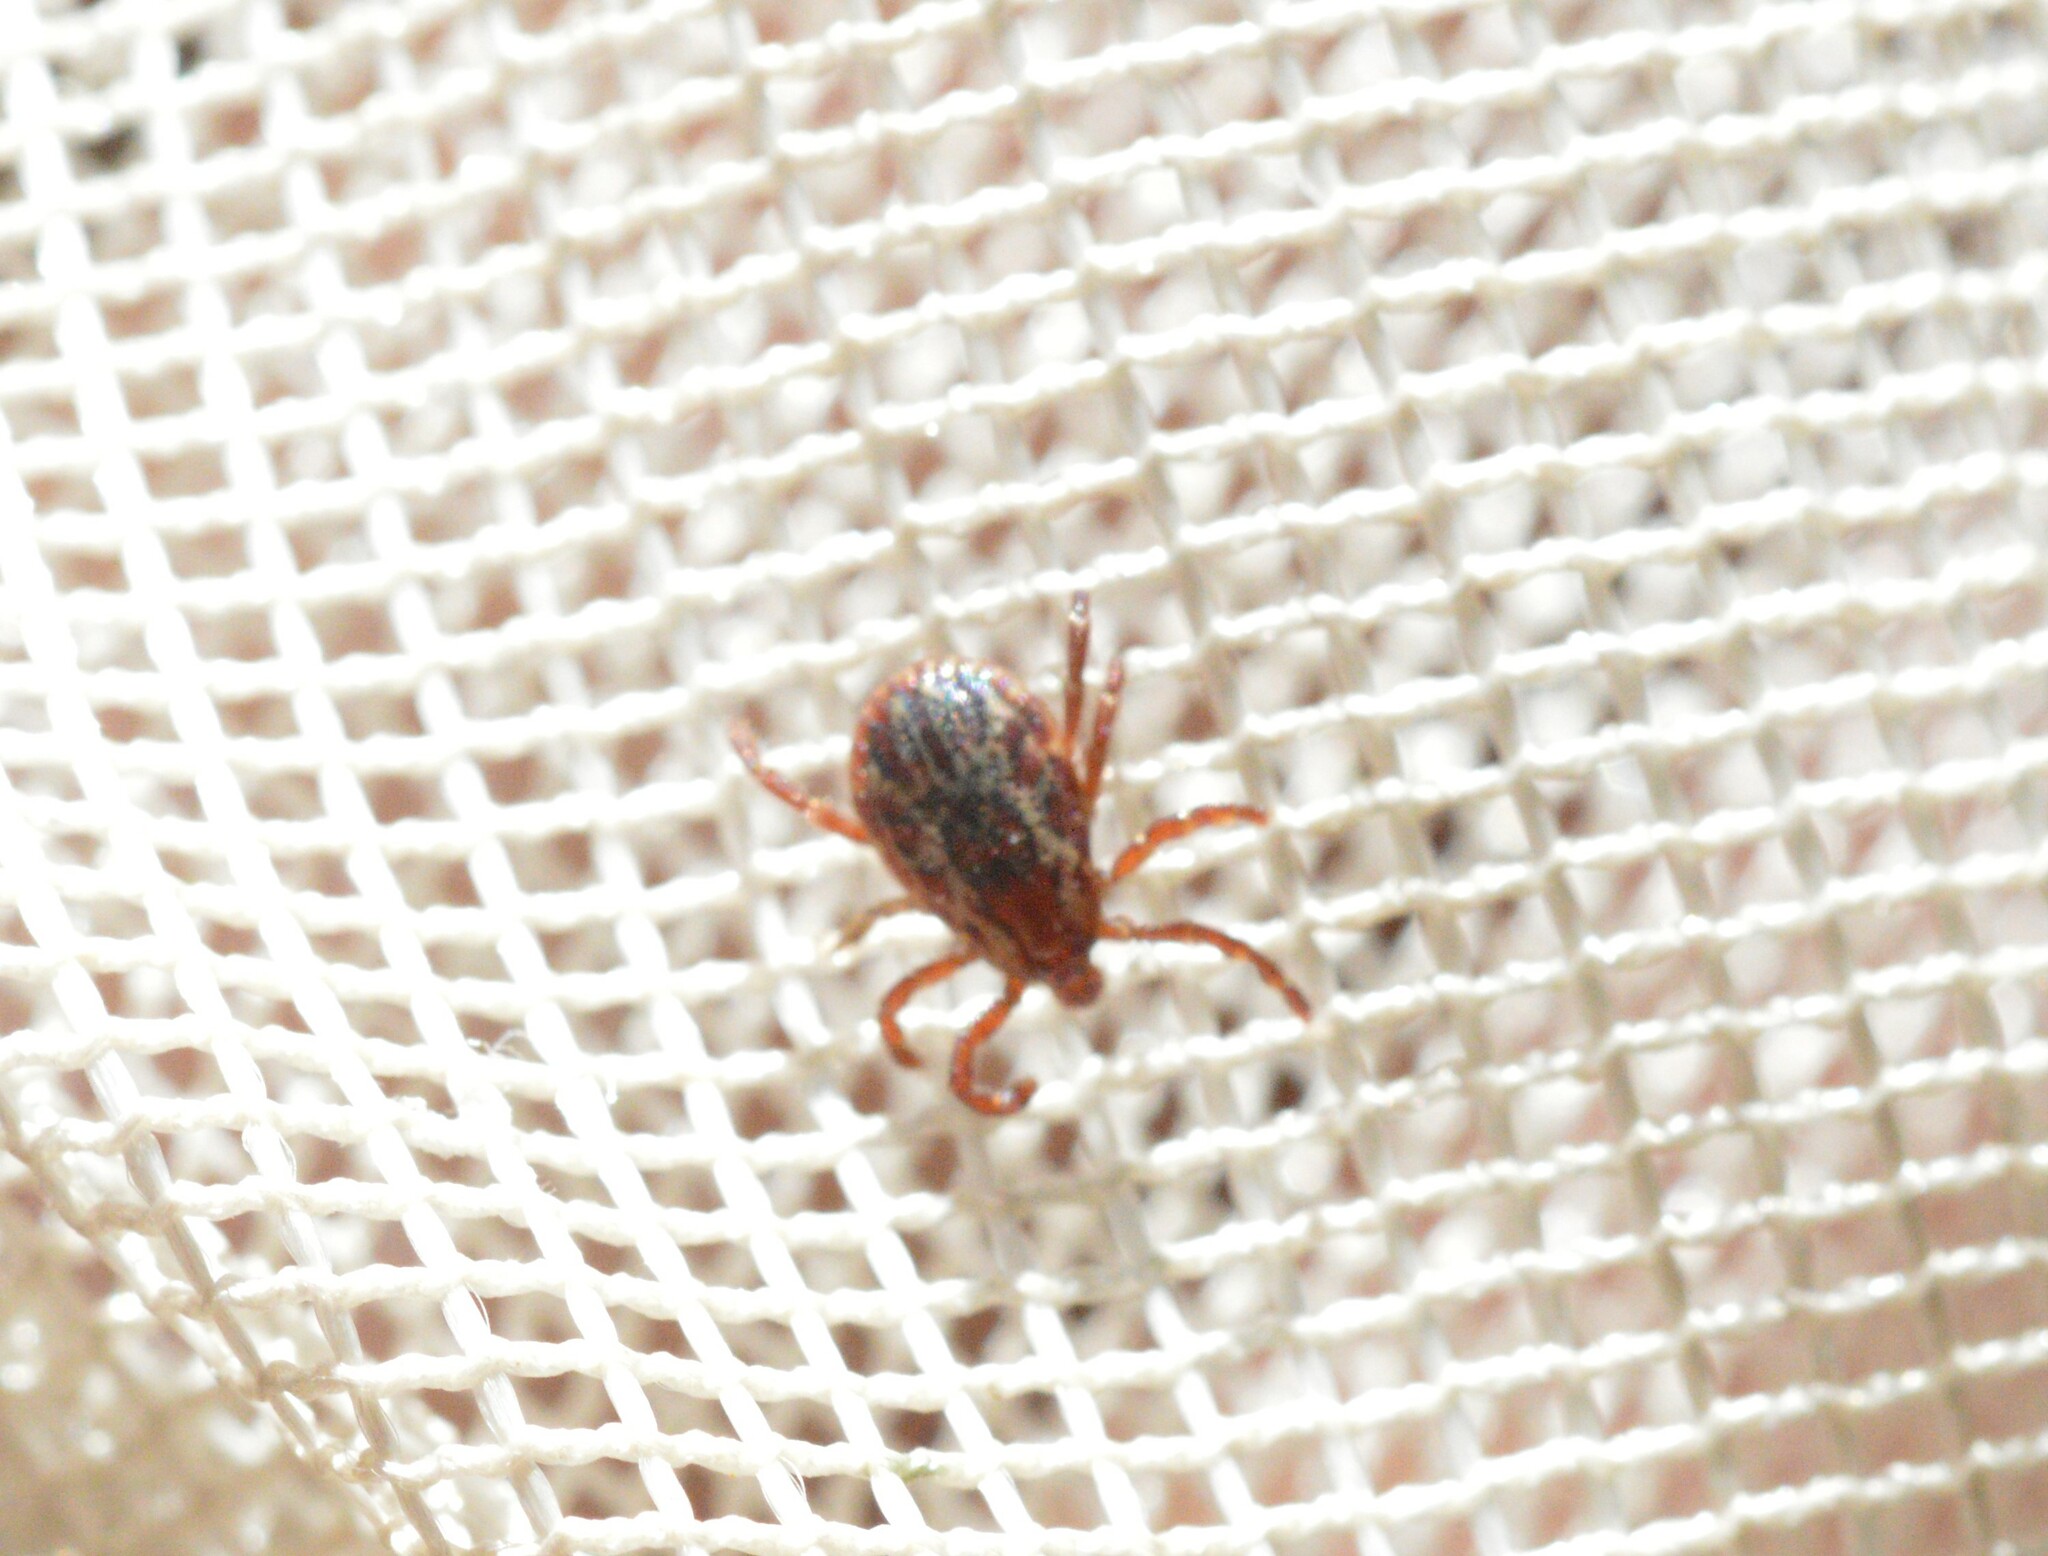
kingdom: Animalia
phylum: Arthropoda
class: Arachnida
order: Ixodida
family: Ixodidae
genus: Dermacentor
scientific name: Dermacentor variabilis
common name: American dog tick
